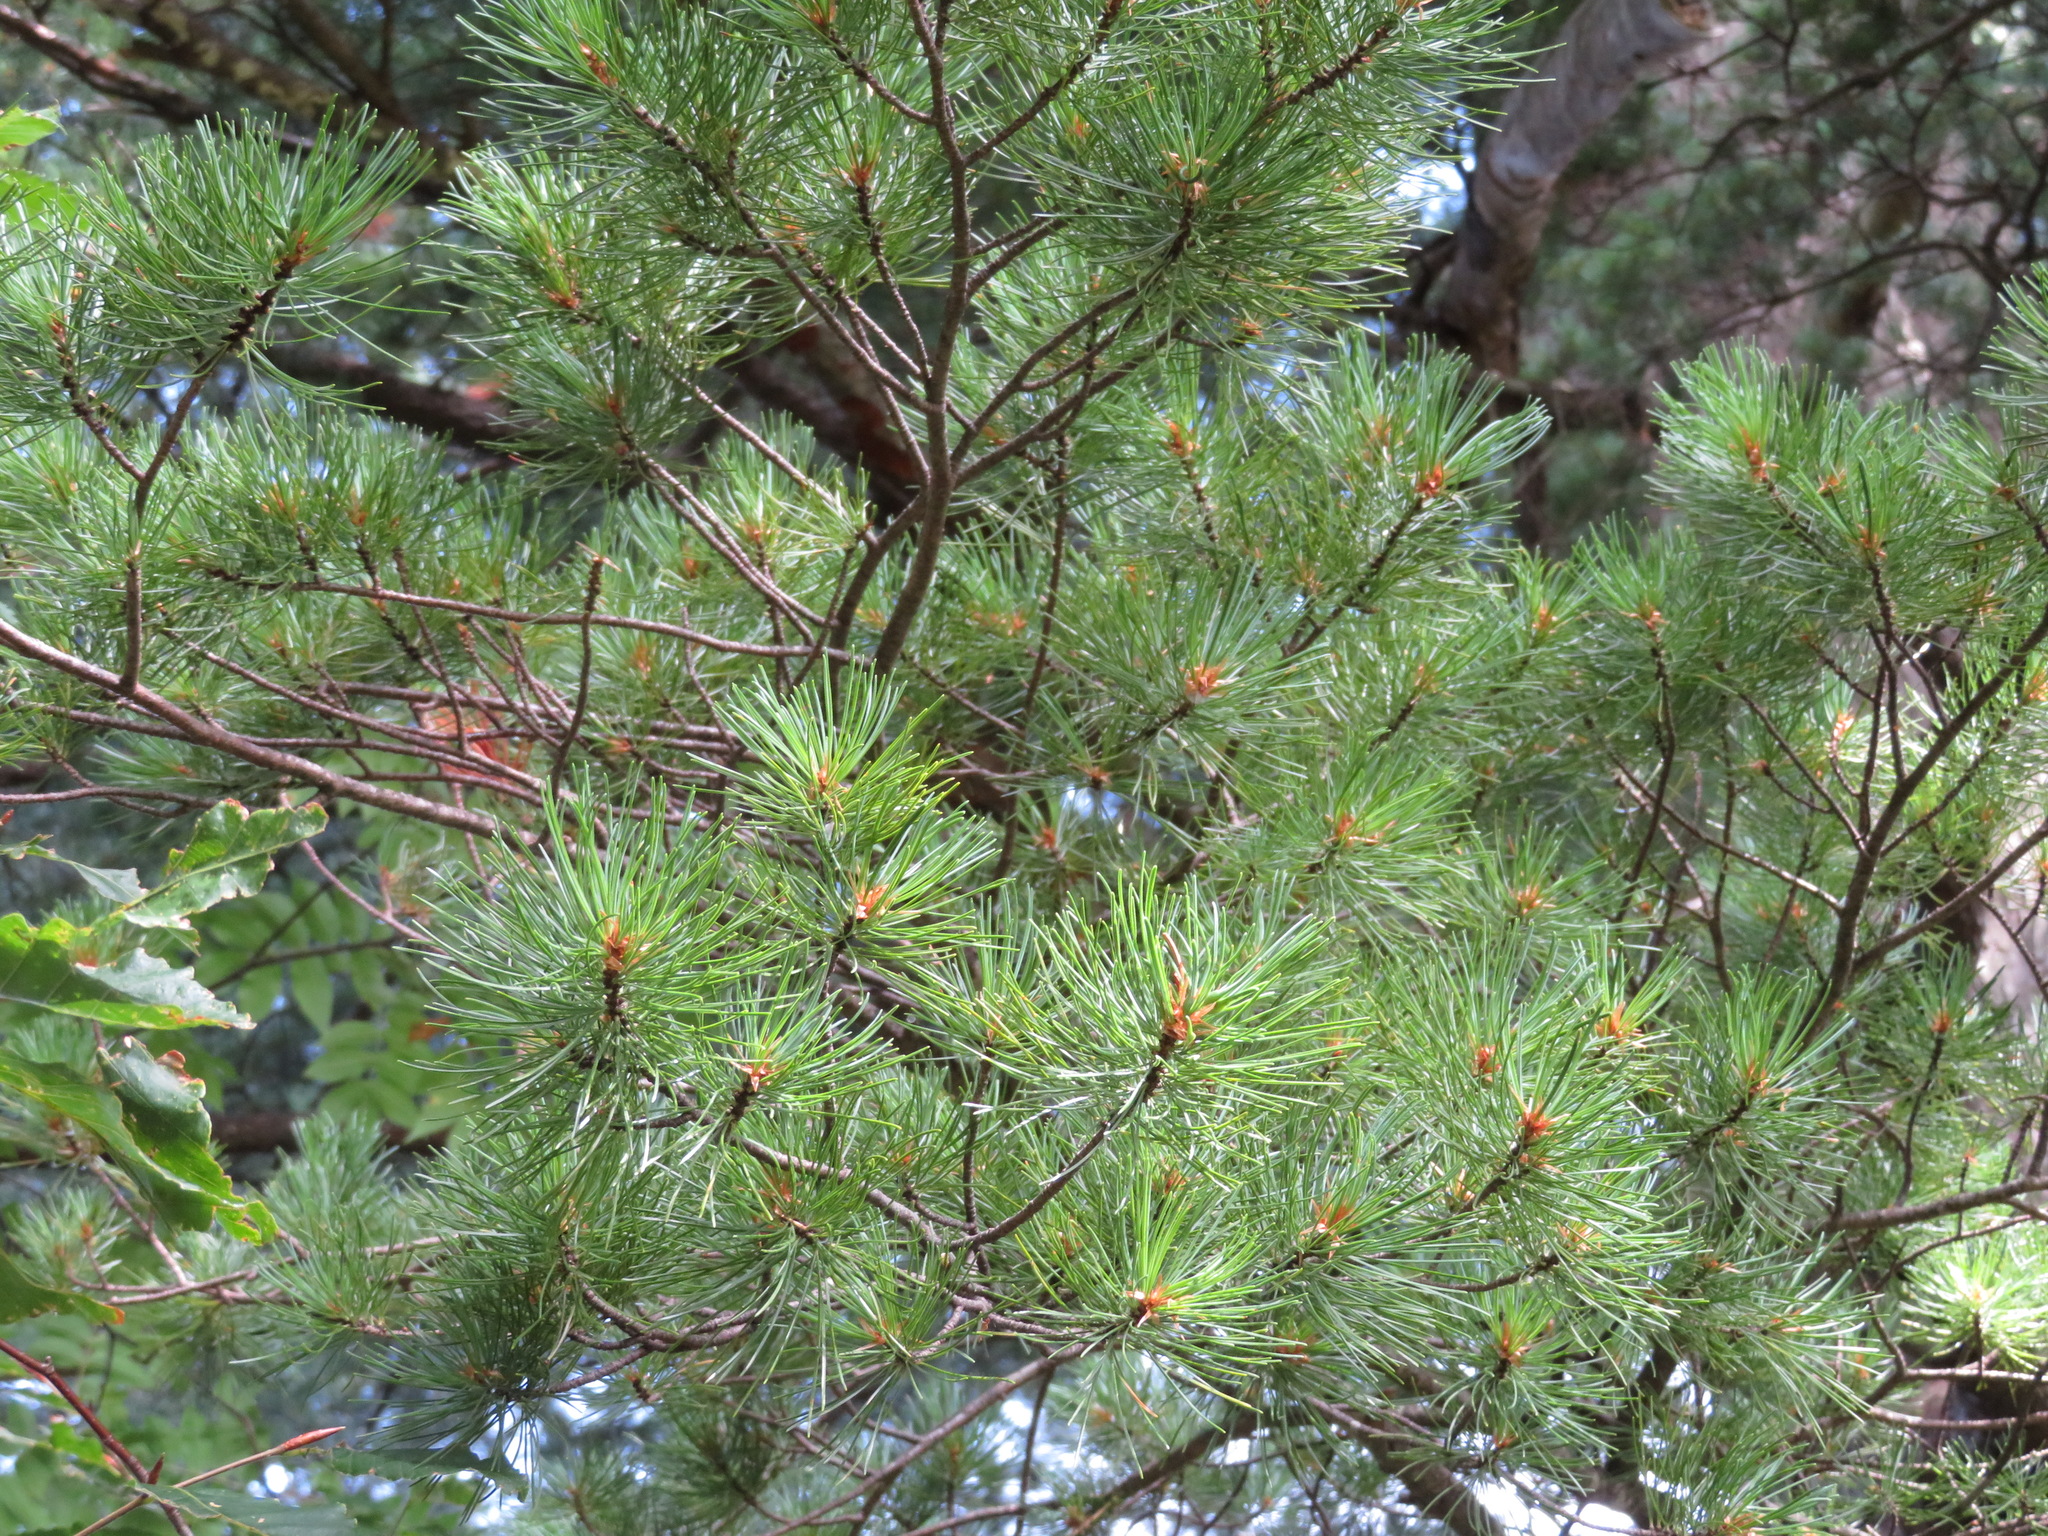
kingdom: Plantae
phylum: Tracheophyta
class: Pinopsida
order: Pinales
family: Pinaceae
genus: Pinus
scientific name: Pinus parviflora
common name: Japanese white pine
